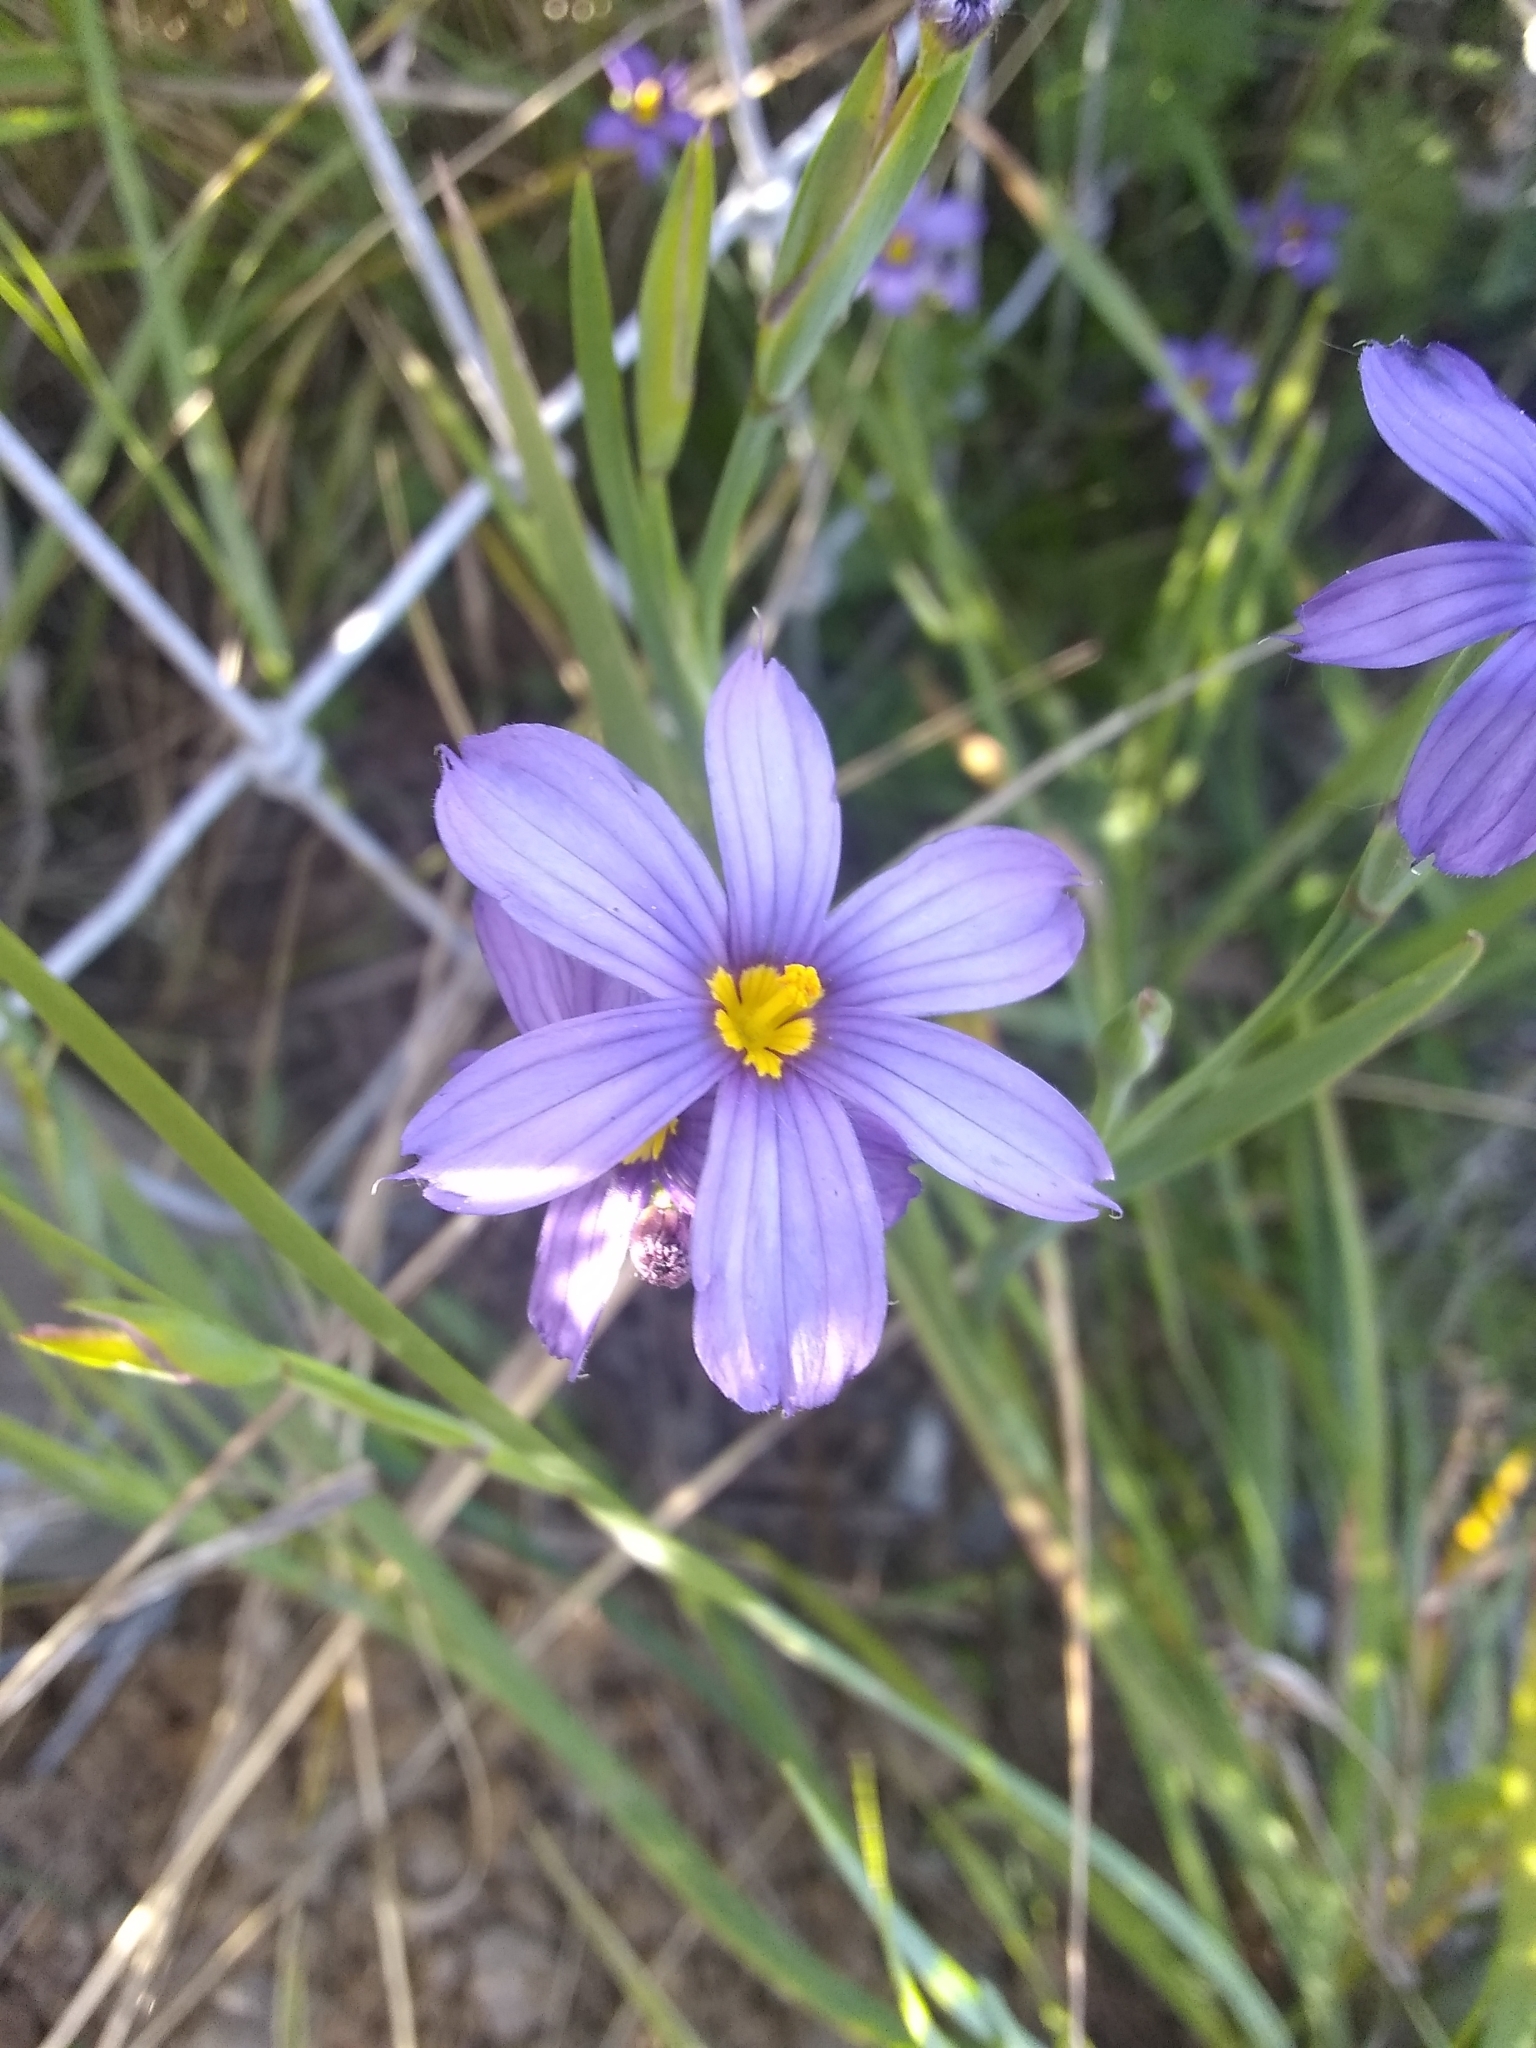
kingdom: Plantae
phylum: Tracheophyta
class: Liliopsida
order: Asparagales
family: Iridaceae
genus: Sisyrinchium
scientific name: Sisyrinchium bellum
